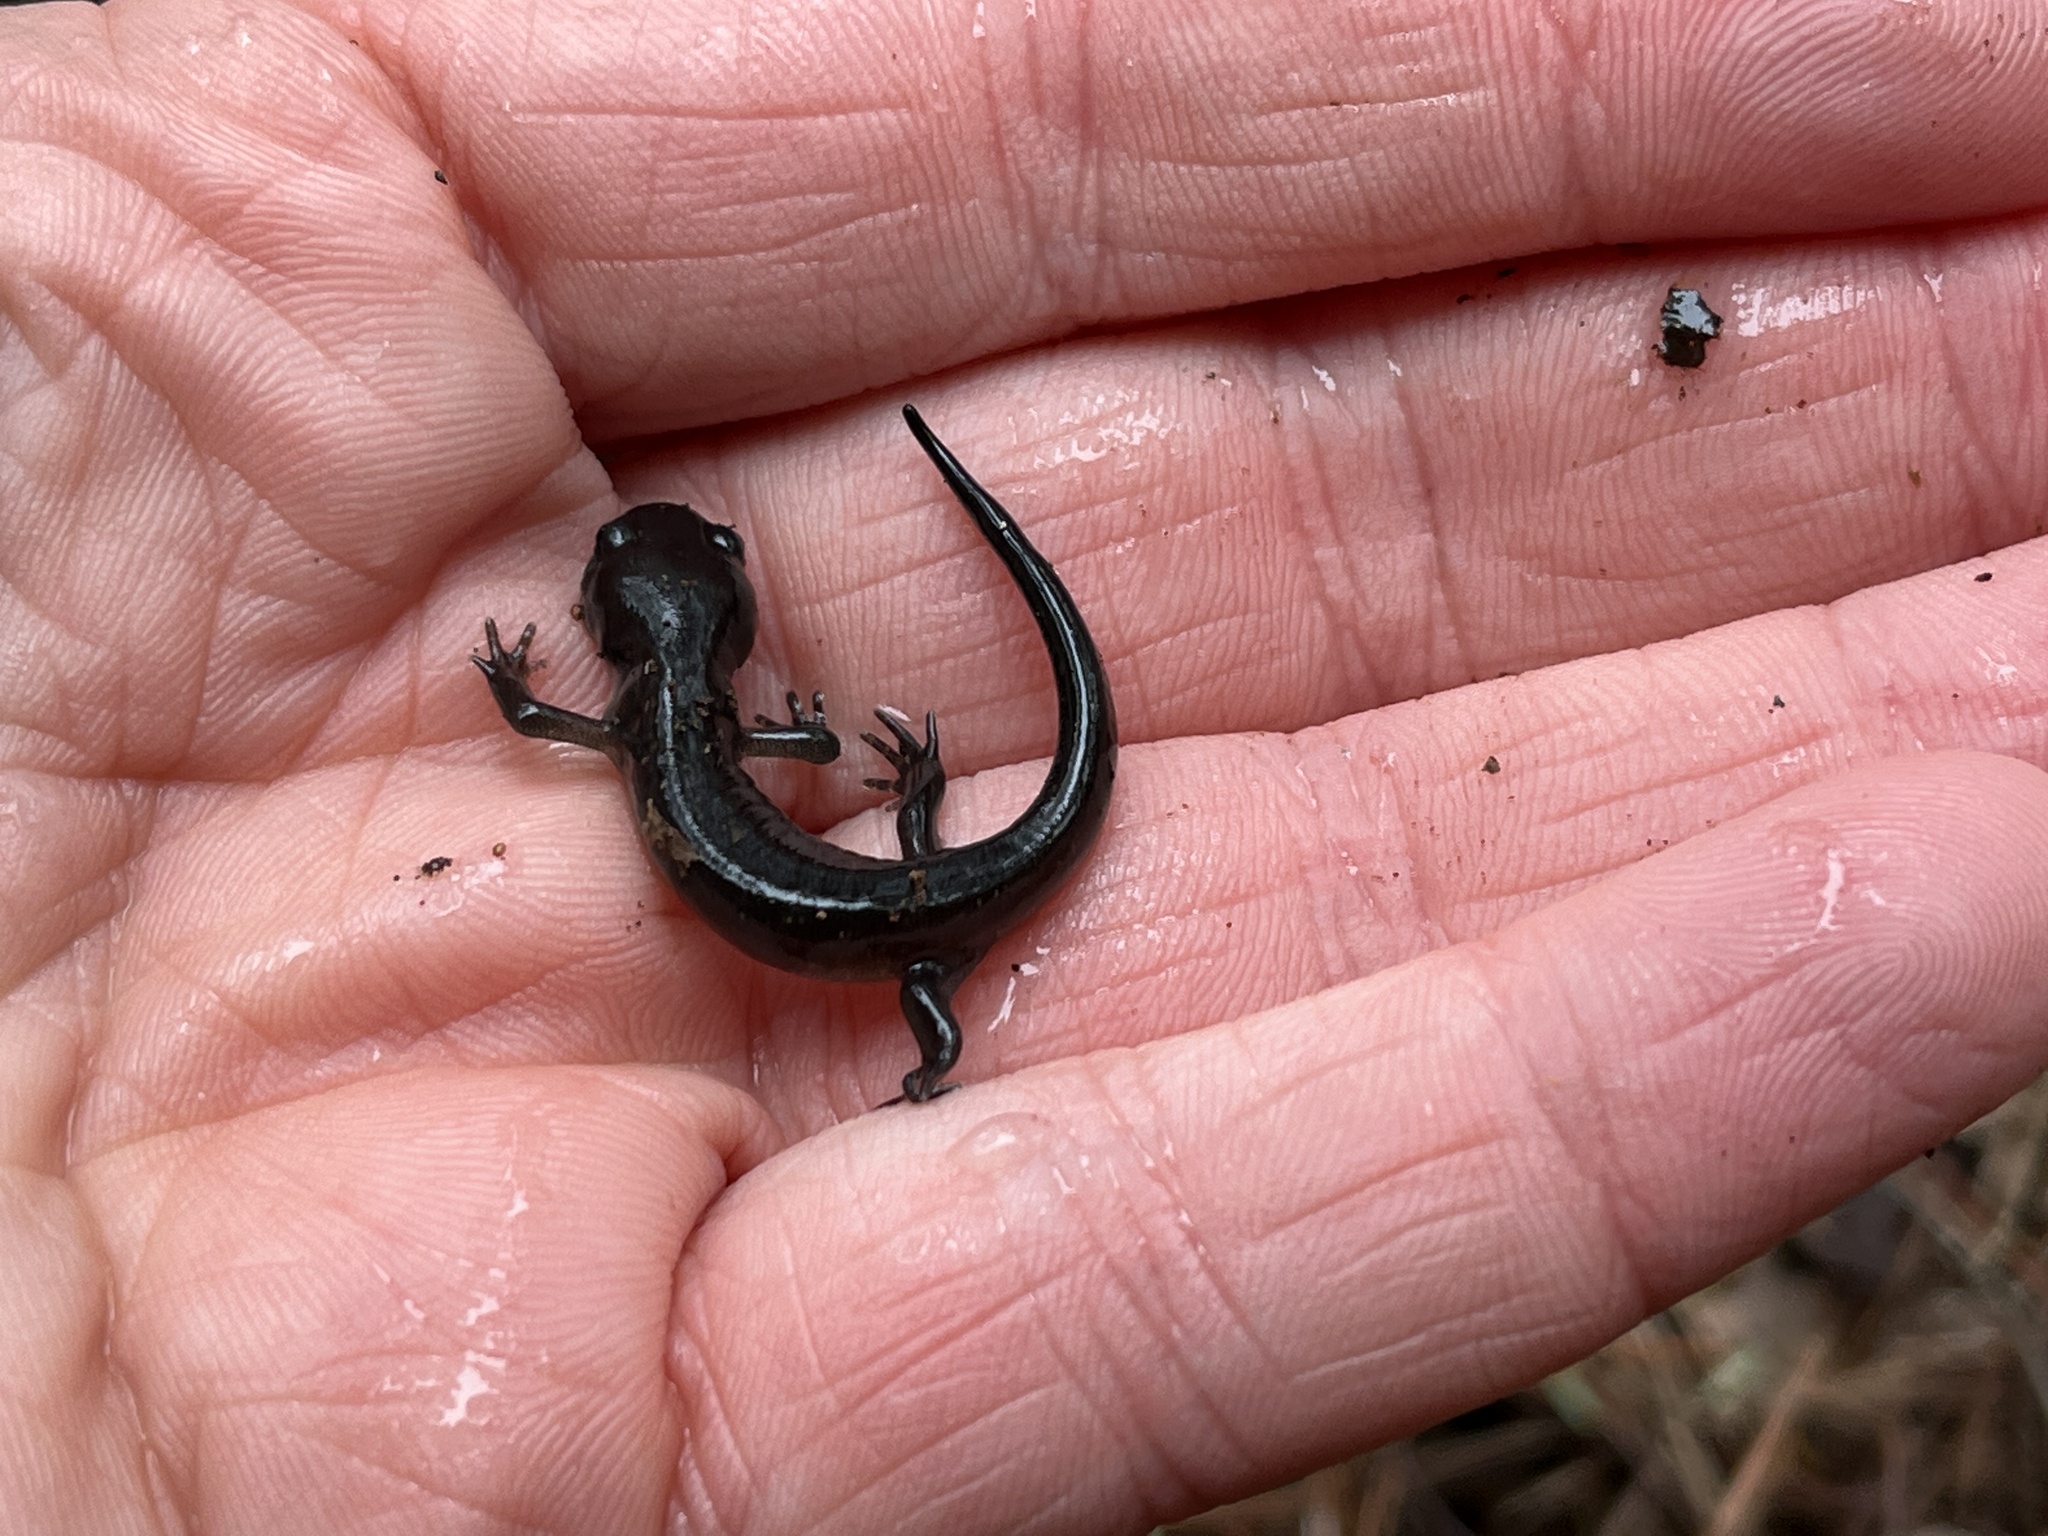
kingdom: Animalia
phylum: Chordata
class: Amphibia
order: Caudata
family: Ambystomatidae
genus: Ambystoma
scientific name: Ambystoma maculatum
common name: Spotted salamander
